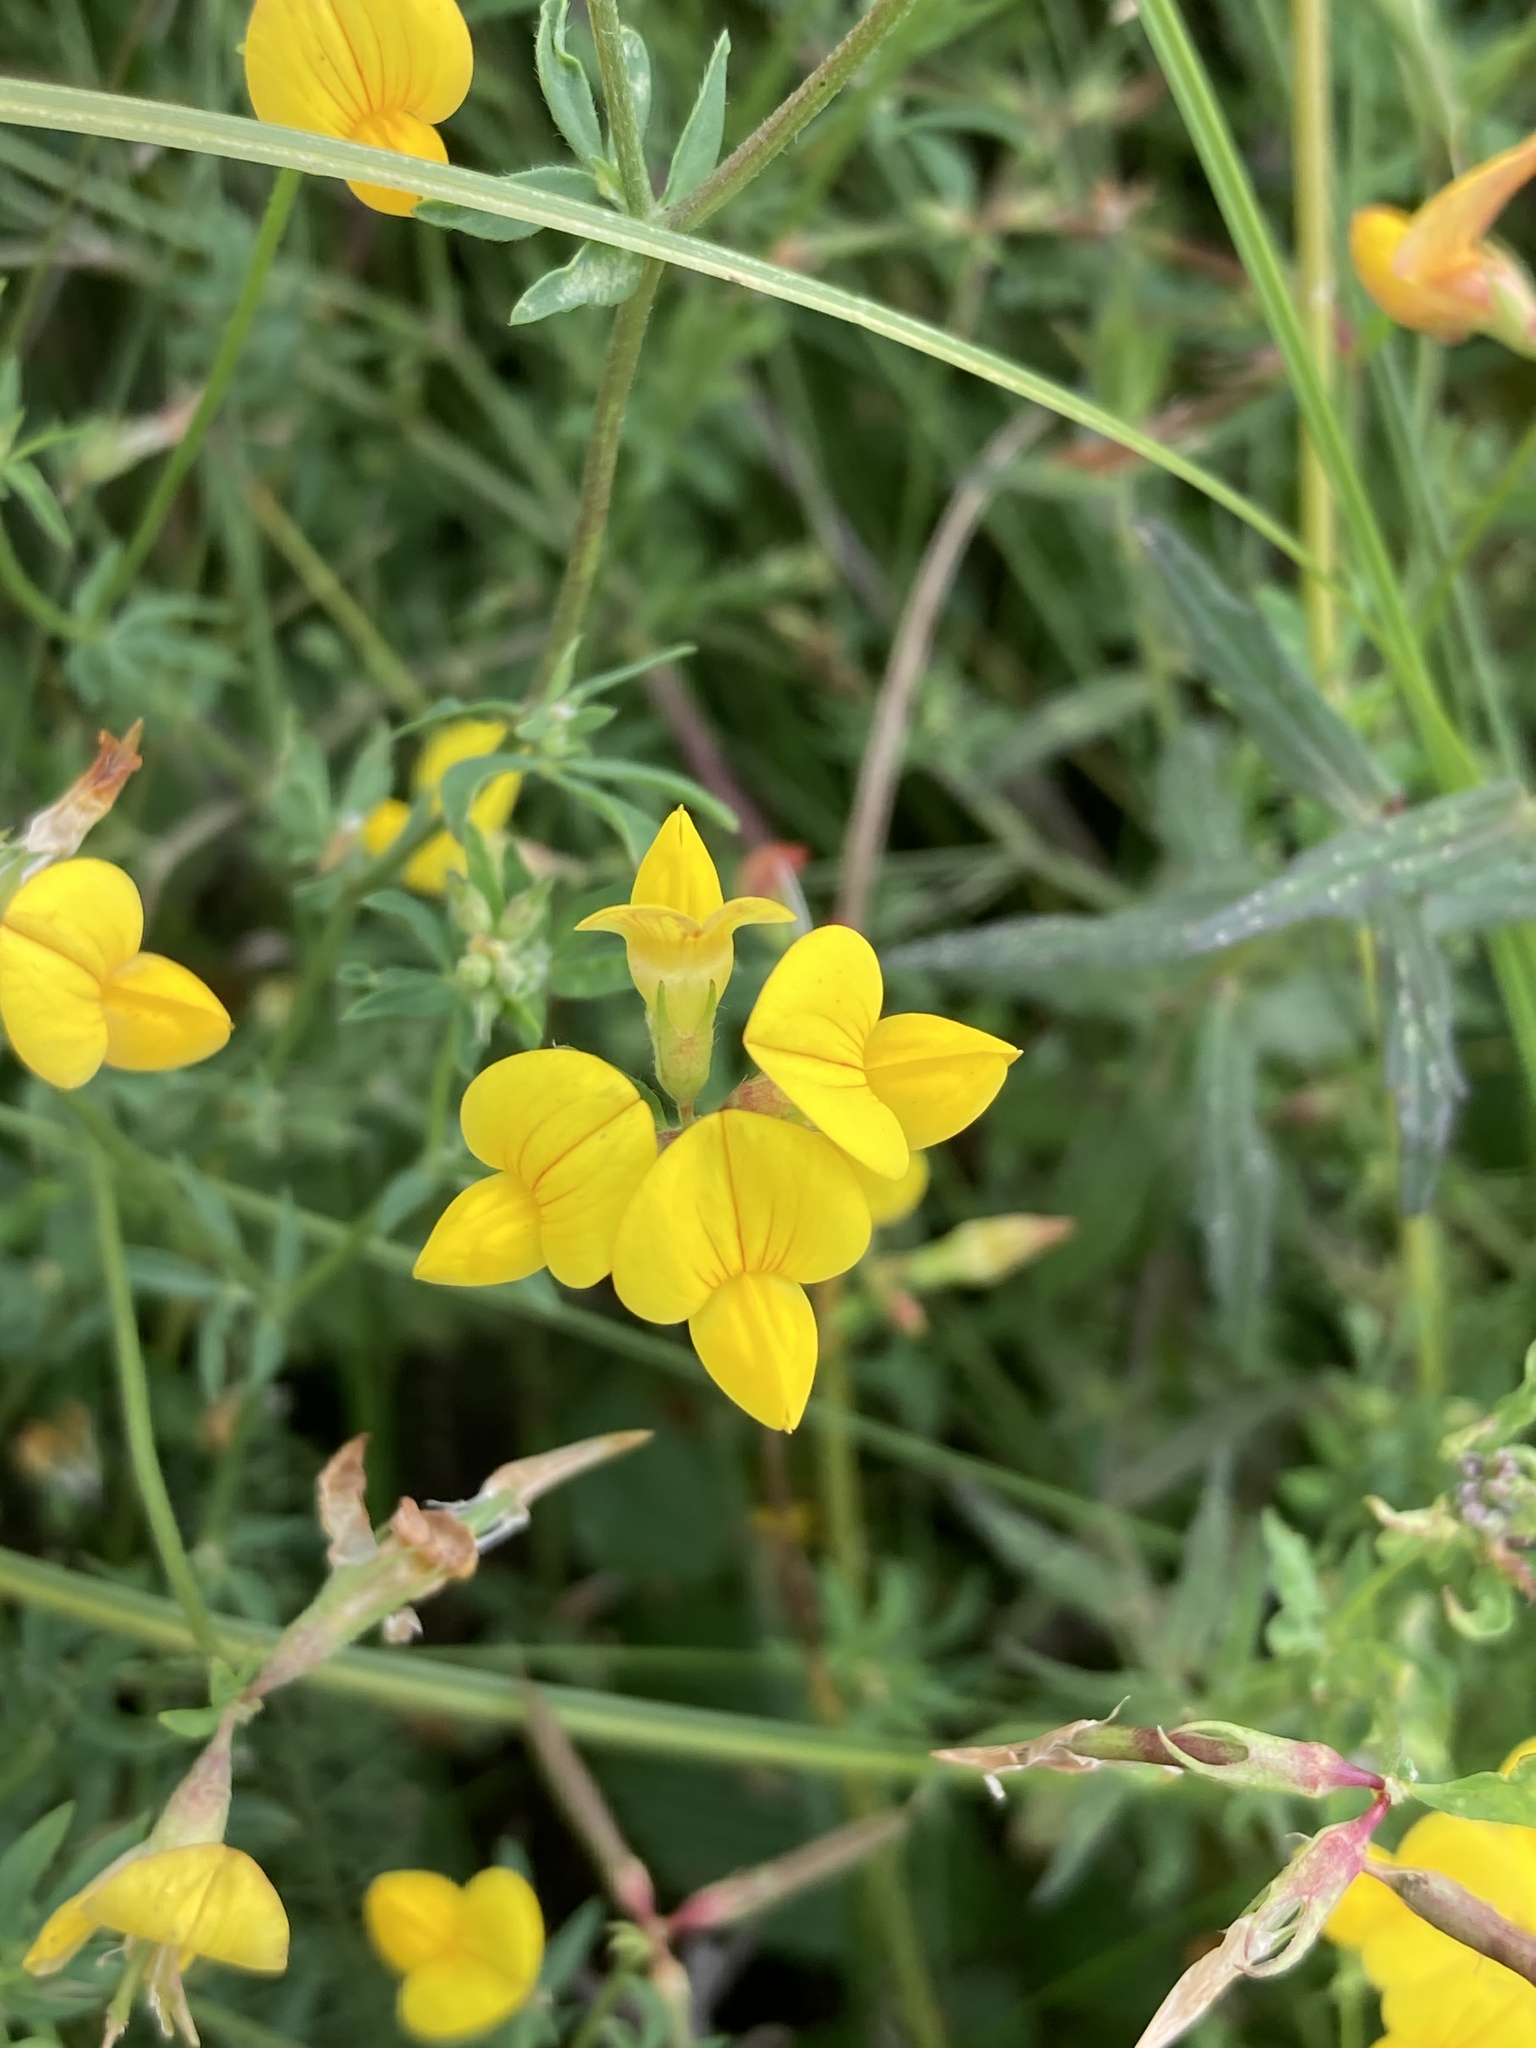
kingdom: Plantae
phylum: Tracheophyta
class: Magnoliopsida
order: Fabales
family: Fabaceae
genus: Lotus
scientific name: Lotus corniculatus
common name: Common bird's-foot-trefoil
